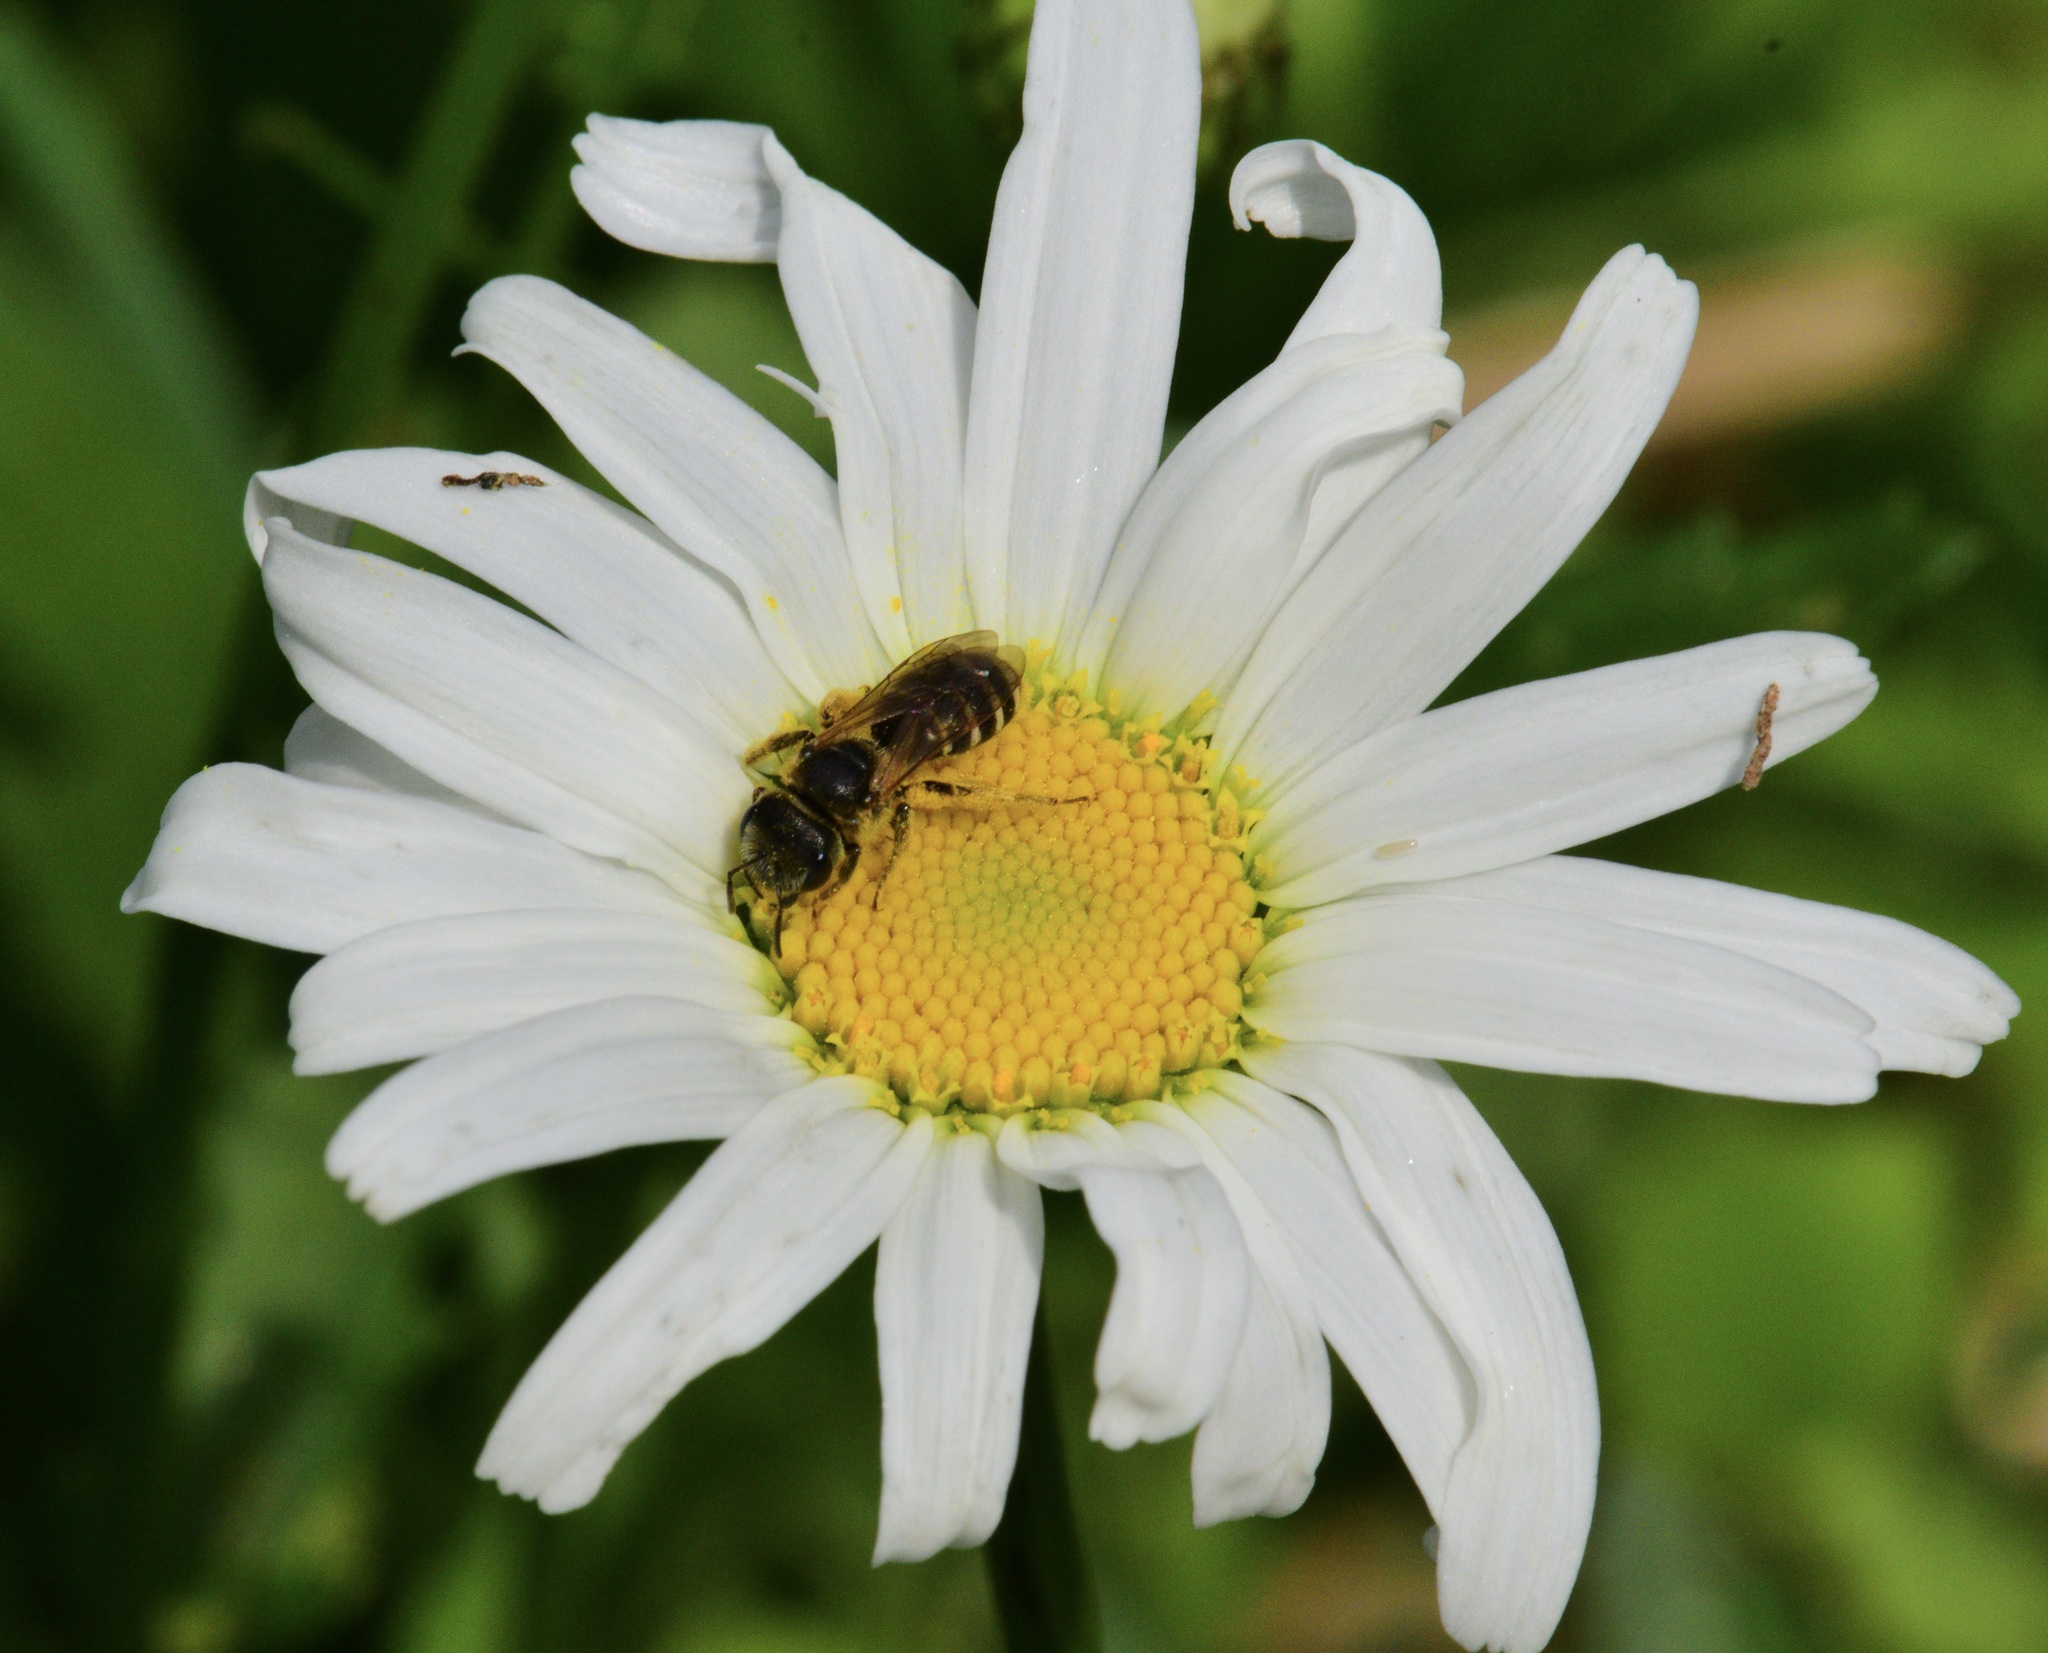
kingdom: Animalia
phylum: Arthropoda
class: Insecta
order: Hymenoptera
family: Halictidae
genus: Halictus
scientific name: Halictus ligatus
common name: Ligated furrow bee
